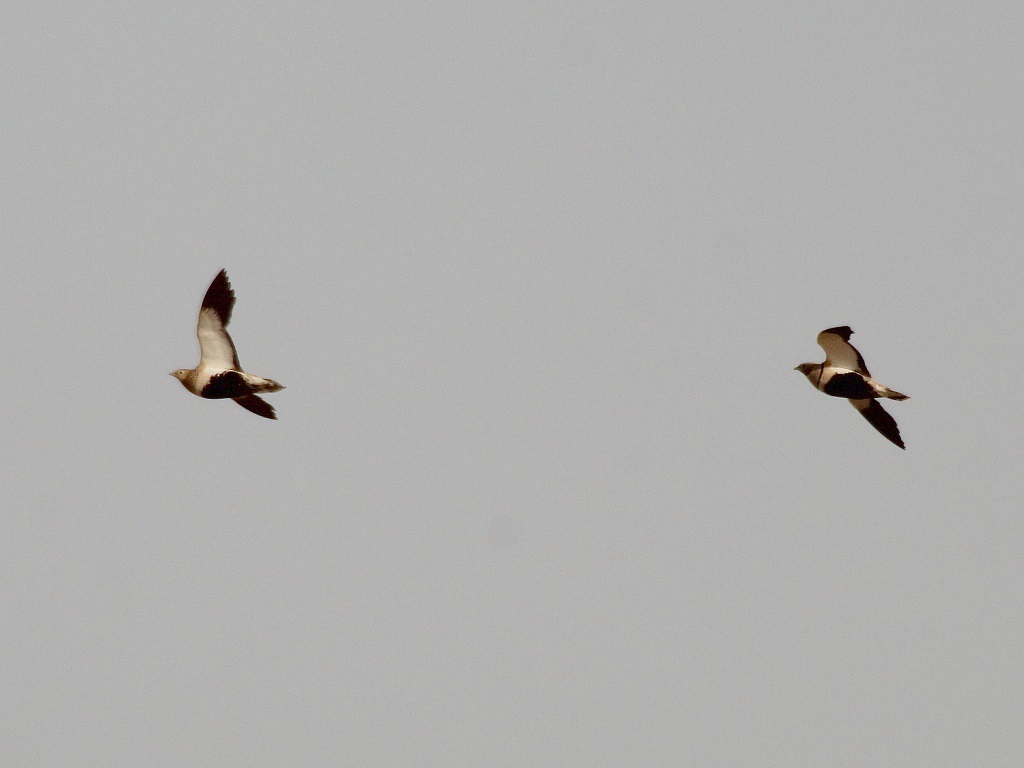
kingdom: Animalia
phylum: Chordata
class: Aves
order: Pteroclidiformes
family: Pteroclididae
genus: Pterocles
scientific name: Pterocles orientalis
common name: Black-bellied sandgrouse
